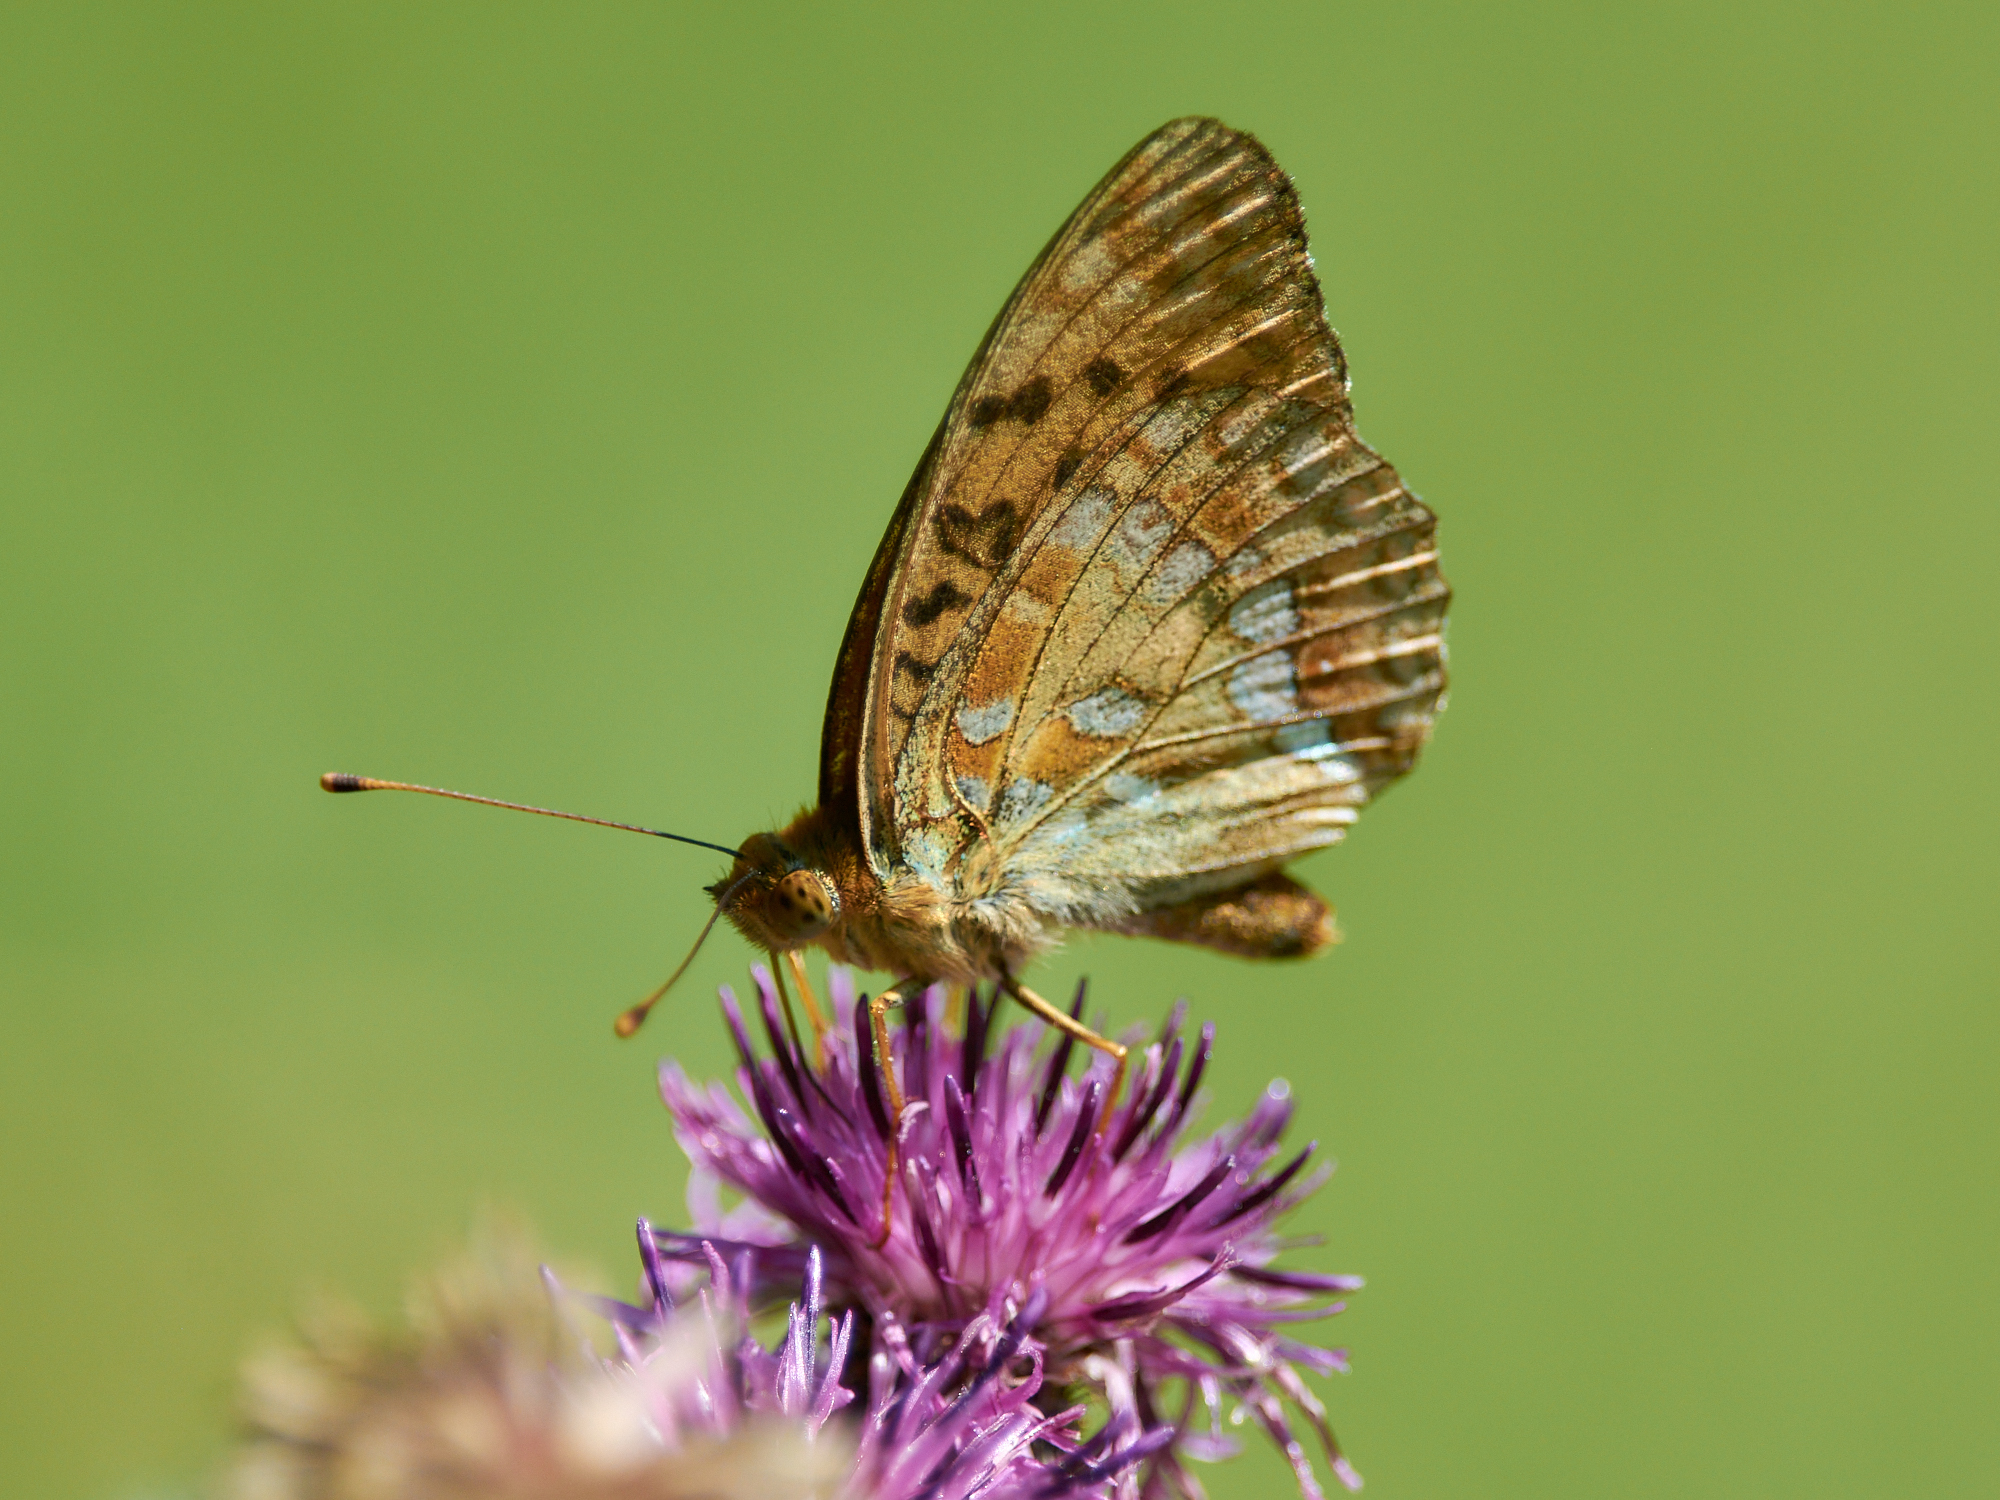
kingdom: Animalia
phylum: Arthropoda
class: Insecta
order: Lepidoptera
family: Nymphalidae
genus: Fabriciana
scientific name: Fabriciana adippe
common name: High brown fritillary
